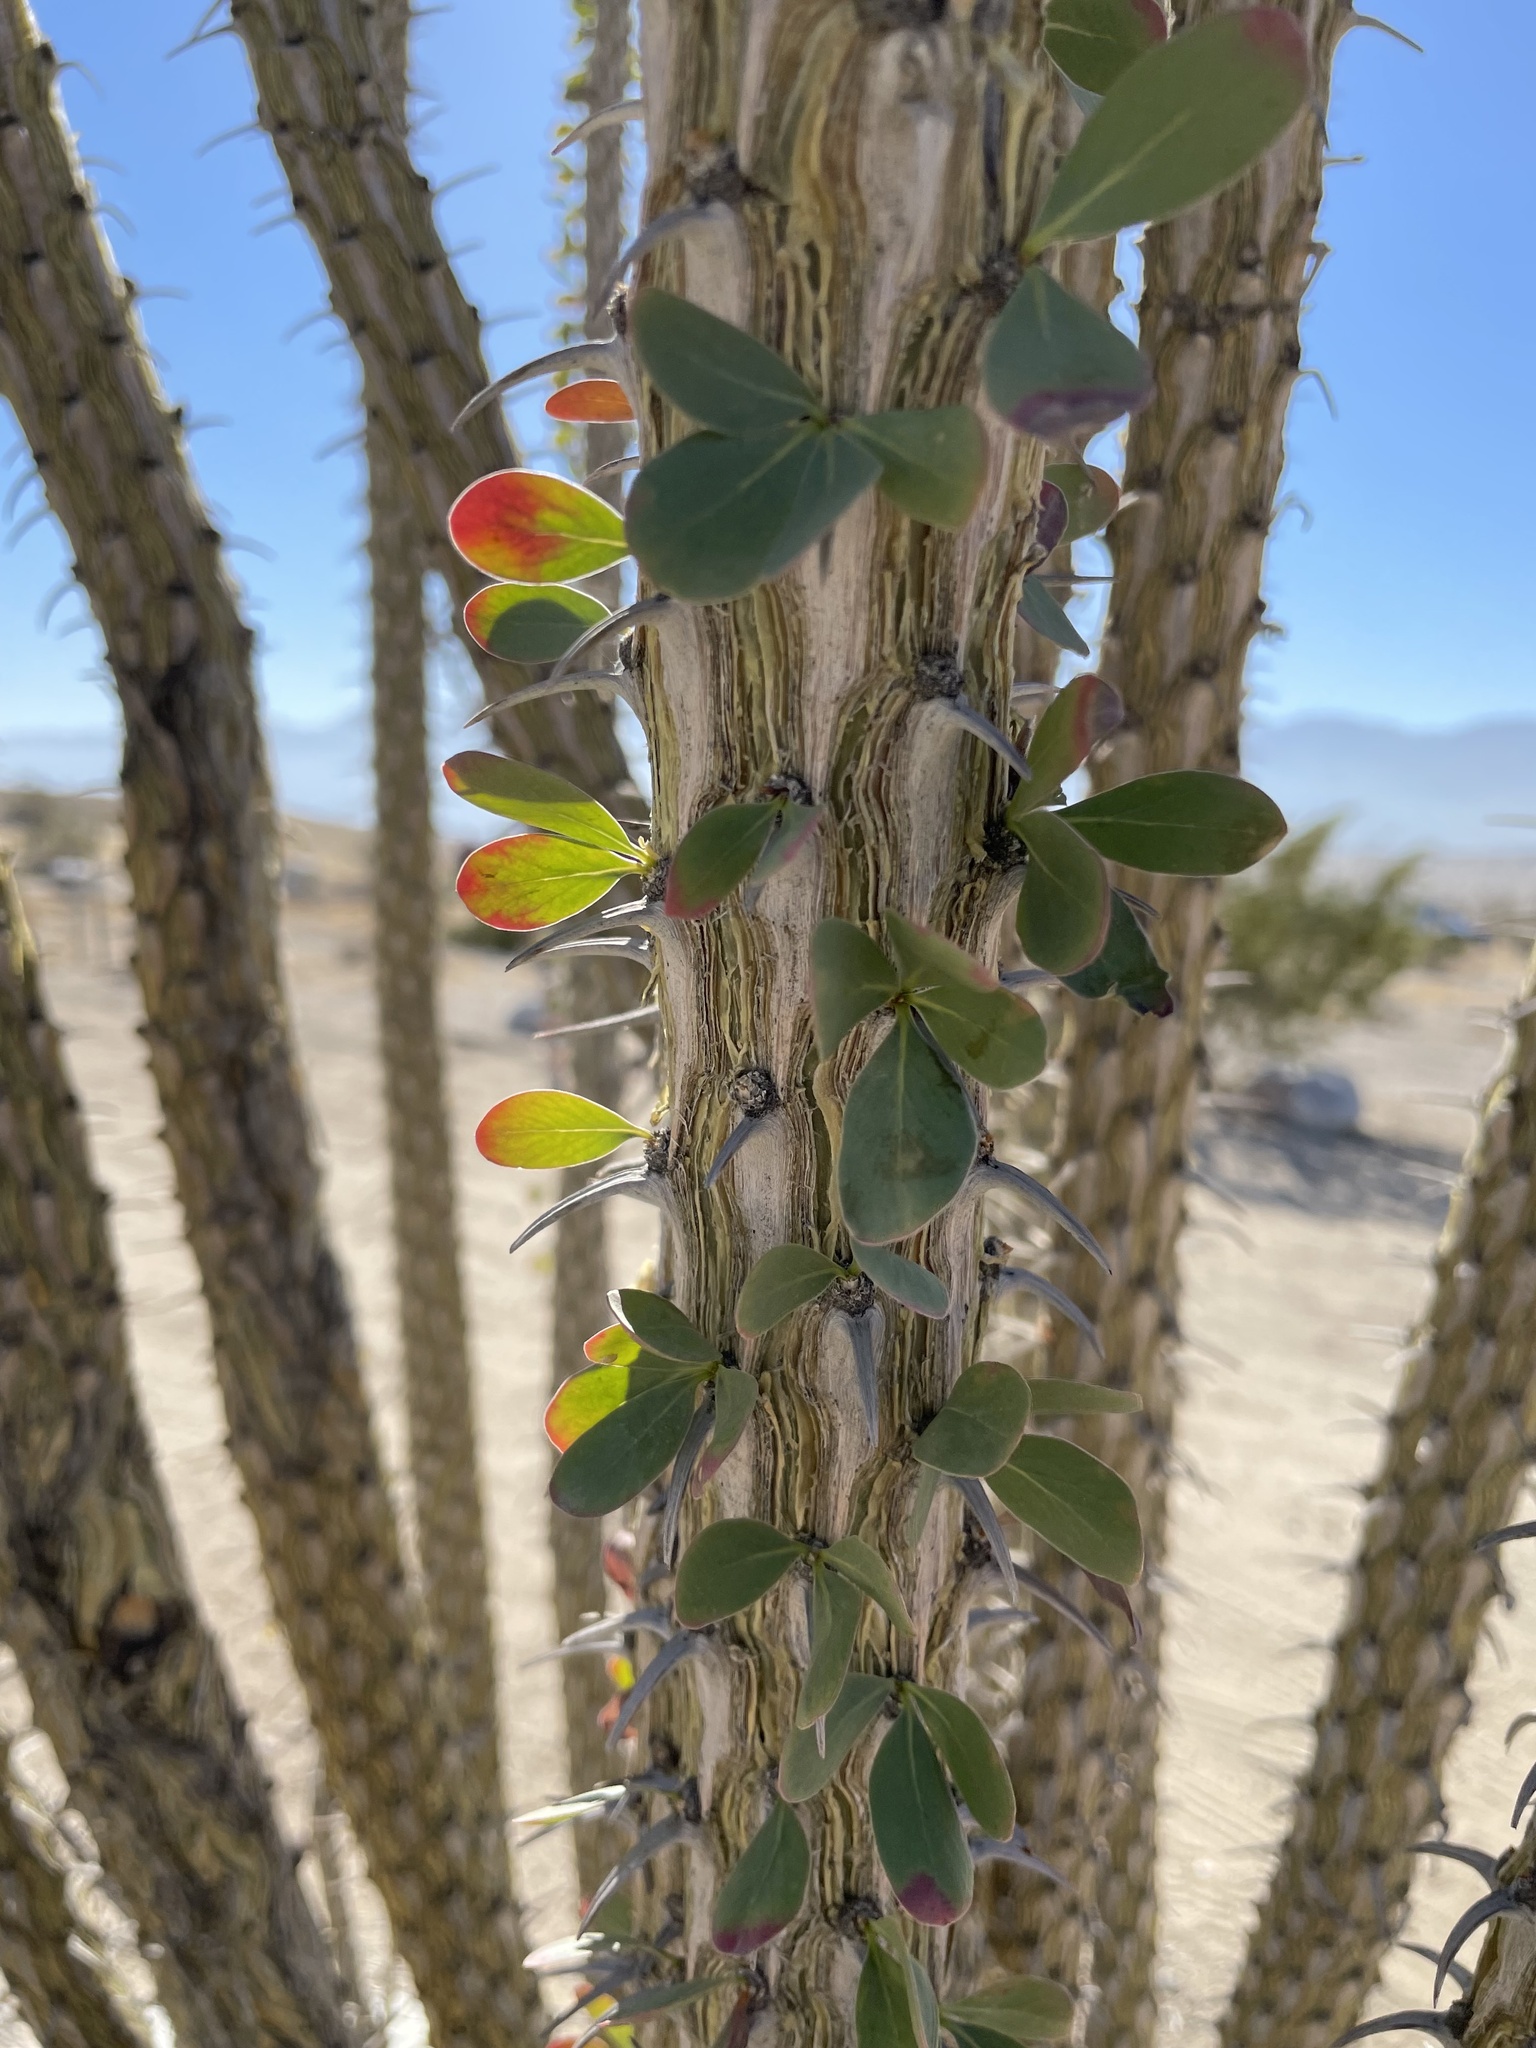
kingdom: Plantae
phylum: Tracheophyta
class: Magnoliopsida
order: Ericales
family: Fouquieriaceae
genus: Fouquieria
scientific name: Fouquieria splendens
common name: Vine-cactus
